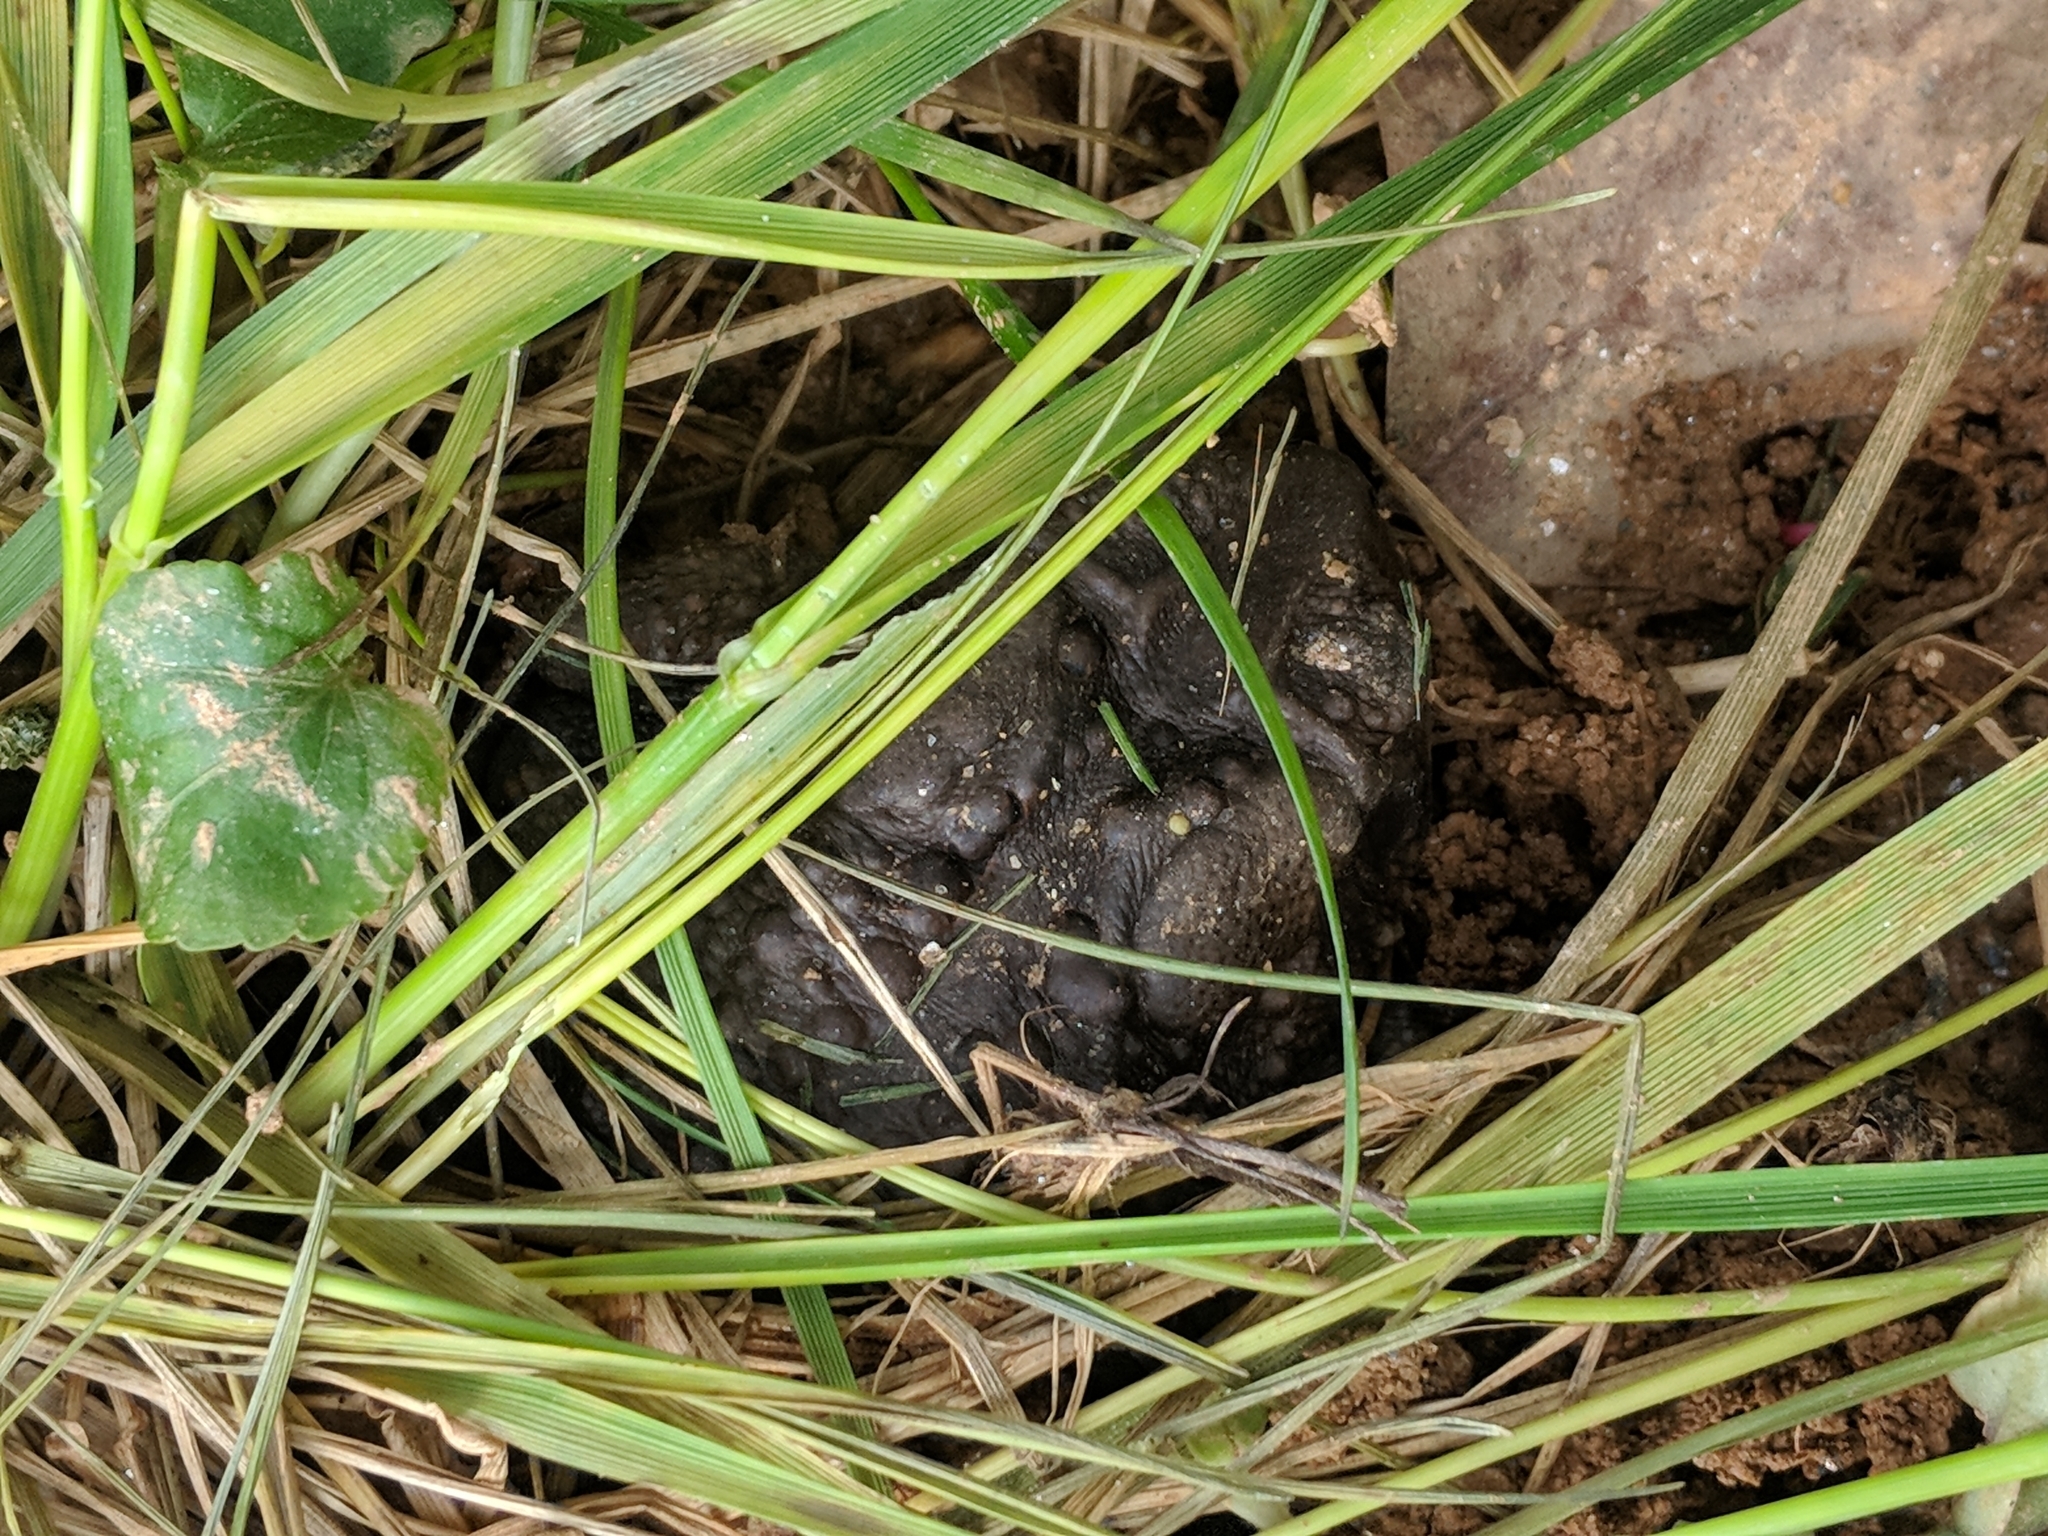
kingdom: Animalia
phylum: Chordata
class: Amphibia
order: Anura
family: Bufonidae
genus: Anaxyrus
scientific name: Anaxyrus americanus
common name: American toad
